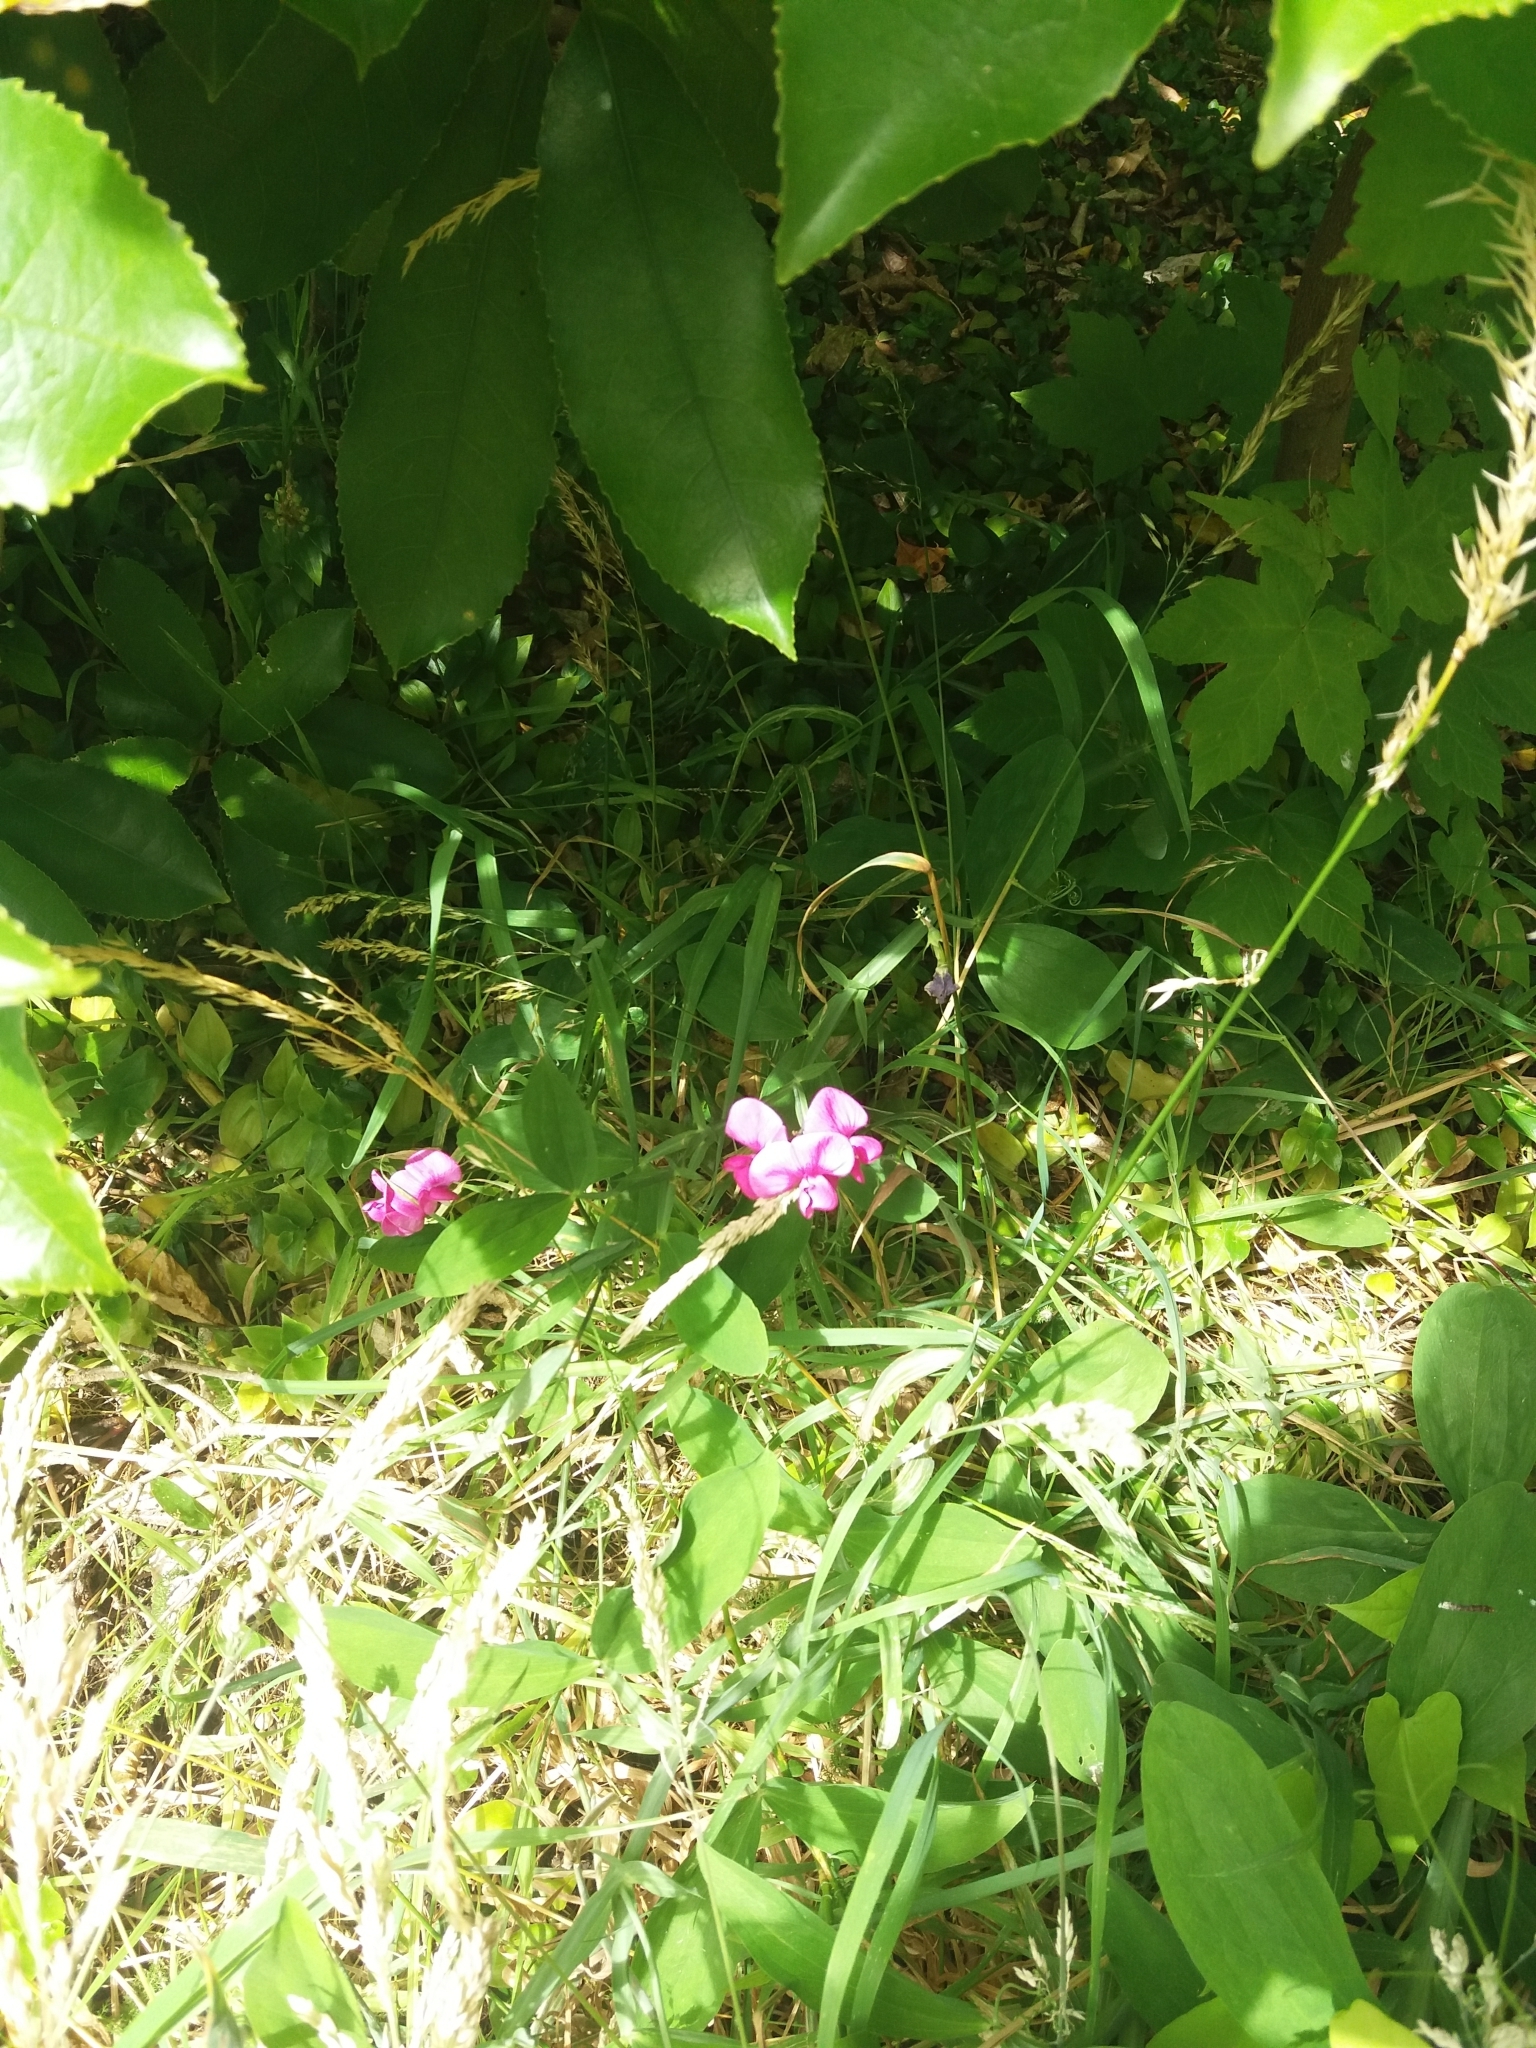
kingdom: Plantae
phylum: Tracheophyta
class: Magnoliopsida
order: Fabales
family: Fabaceae
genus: Lathyrus
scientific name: Lathyrus latifolius
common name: Perennial pea
